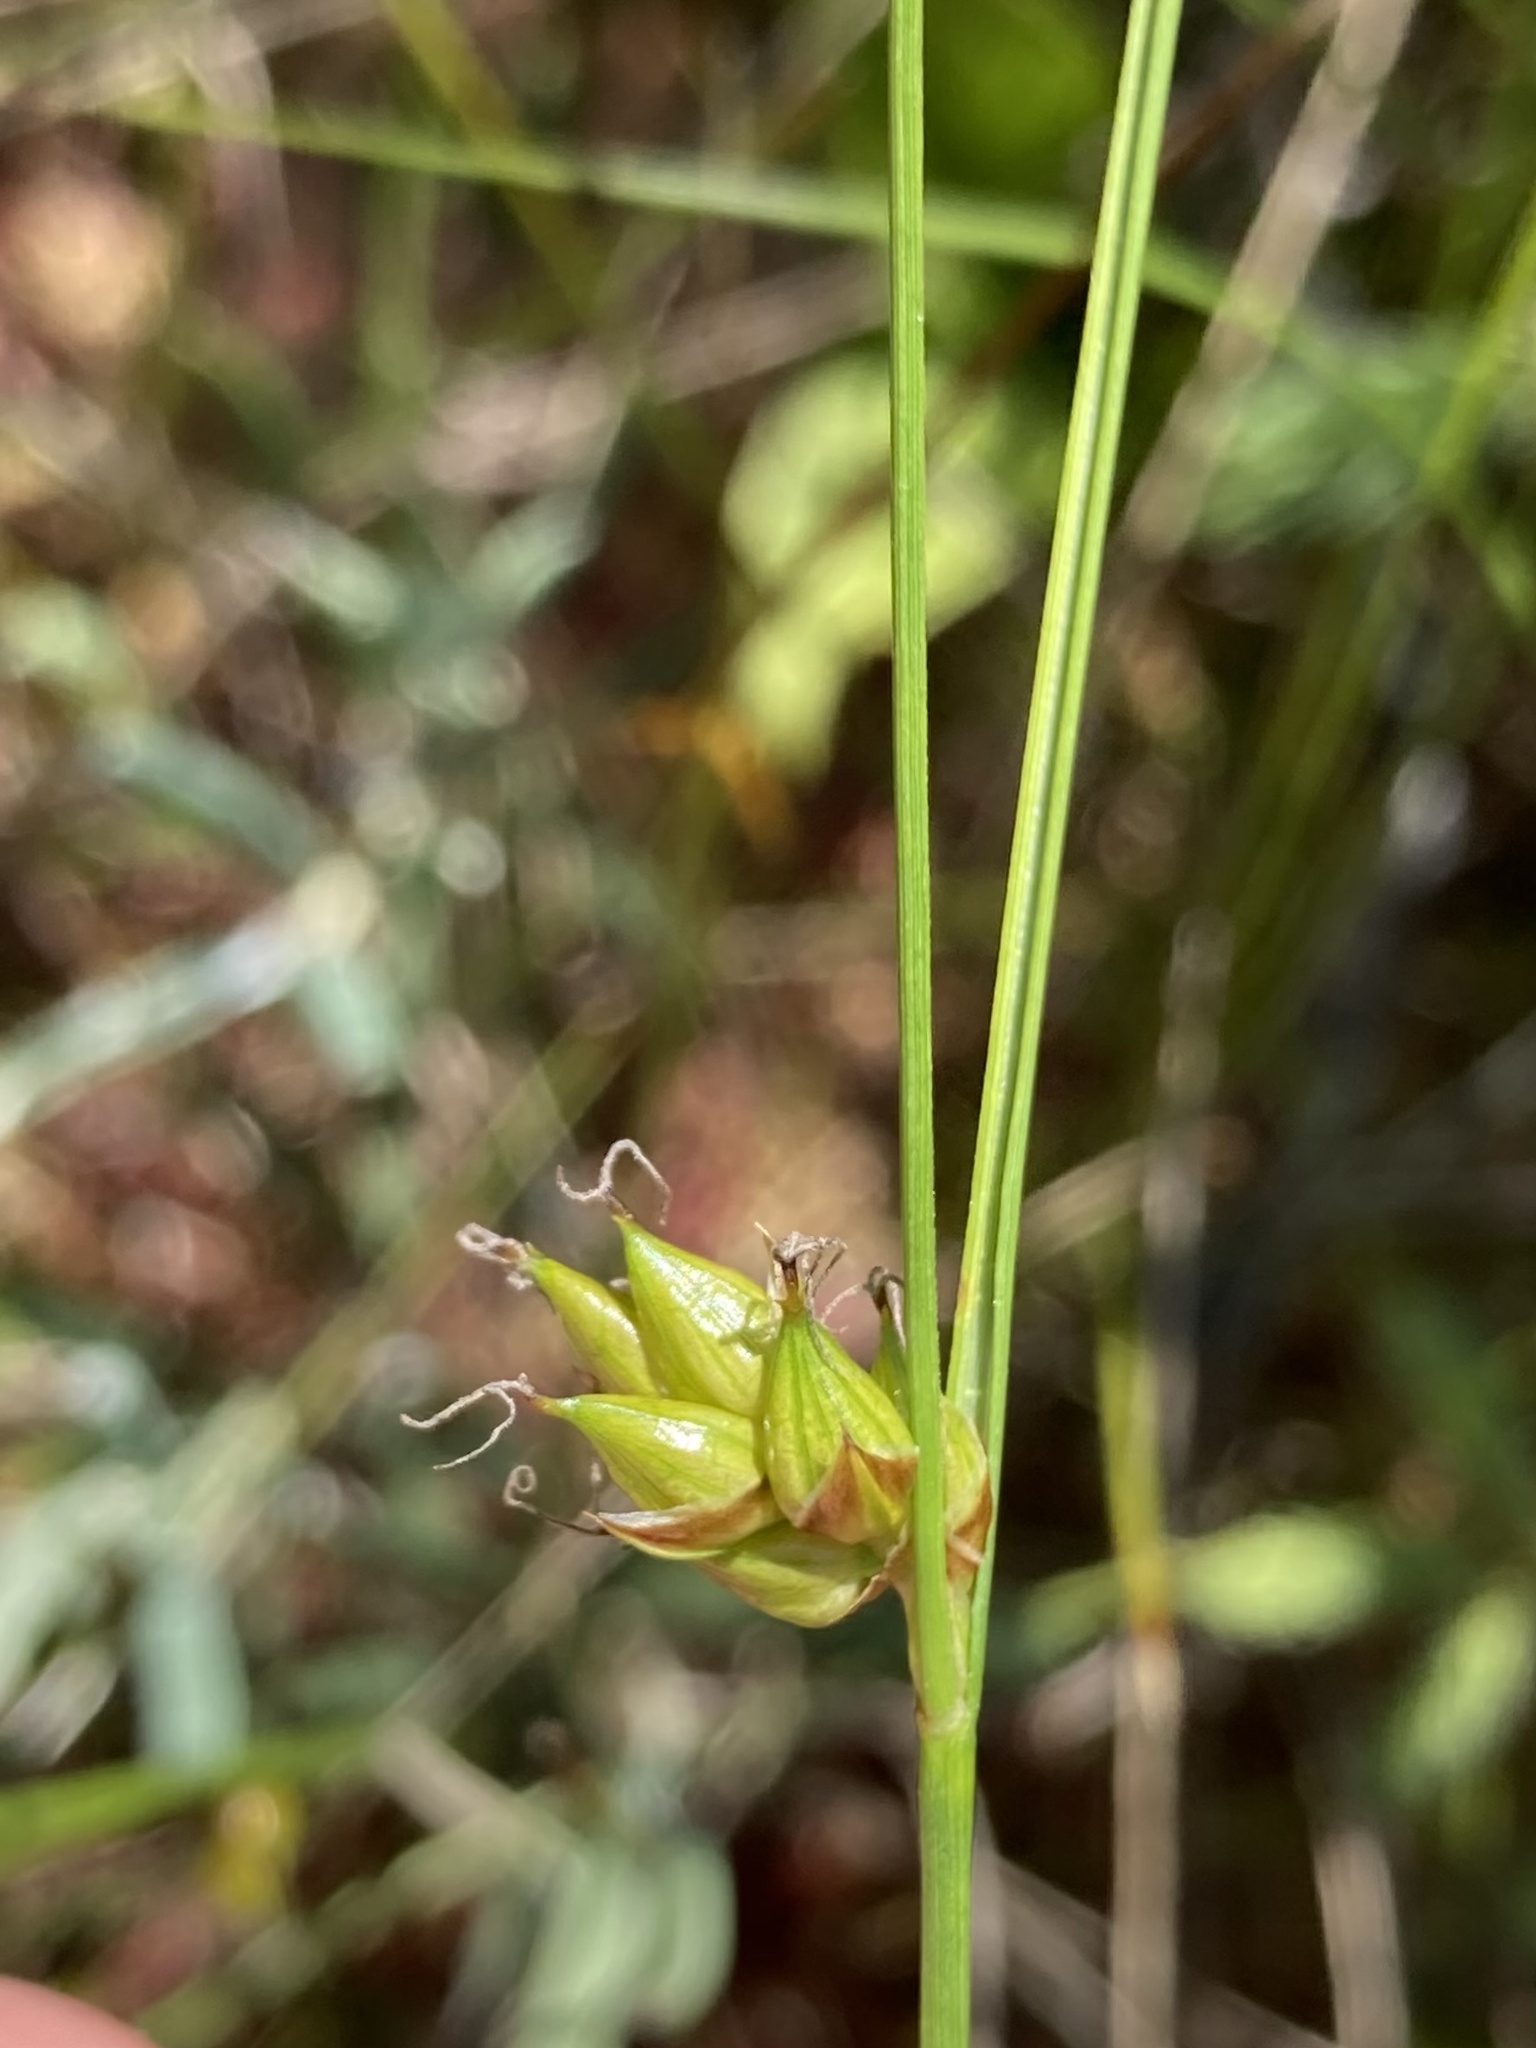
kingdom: Plantae
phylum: Tracheophyta
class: Liliopsida
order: Poales
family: Cyperaceae
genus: Carex
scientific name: Carex oligosperma
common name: Few-seed sedge
